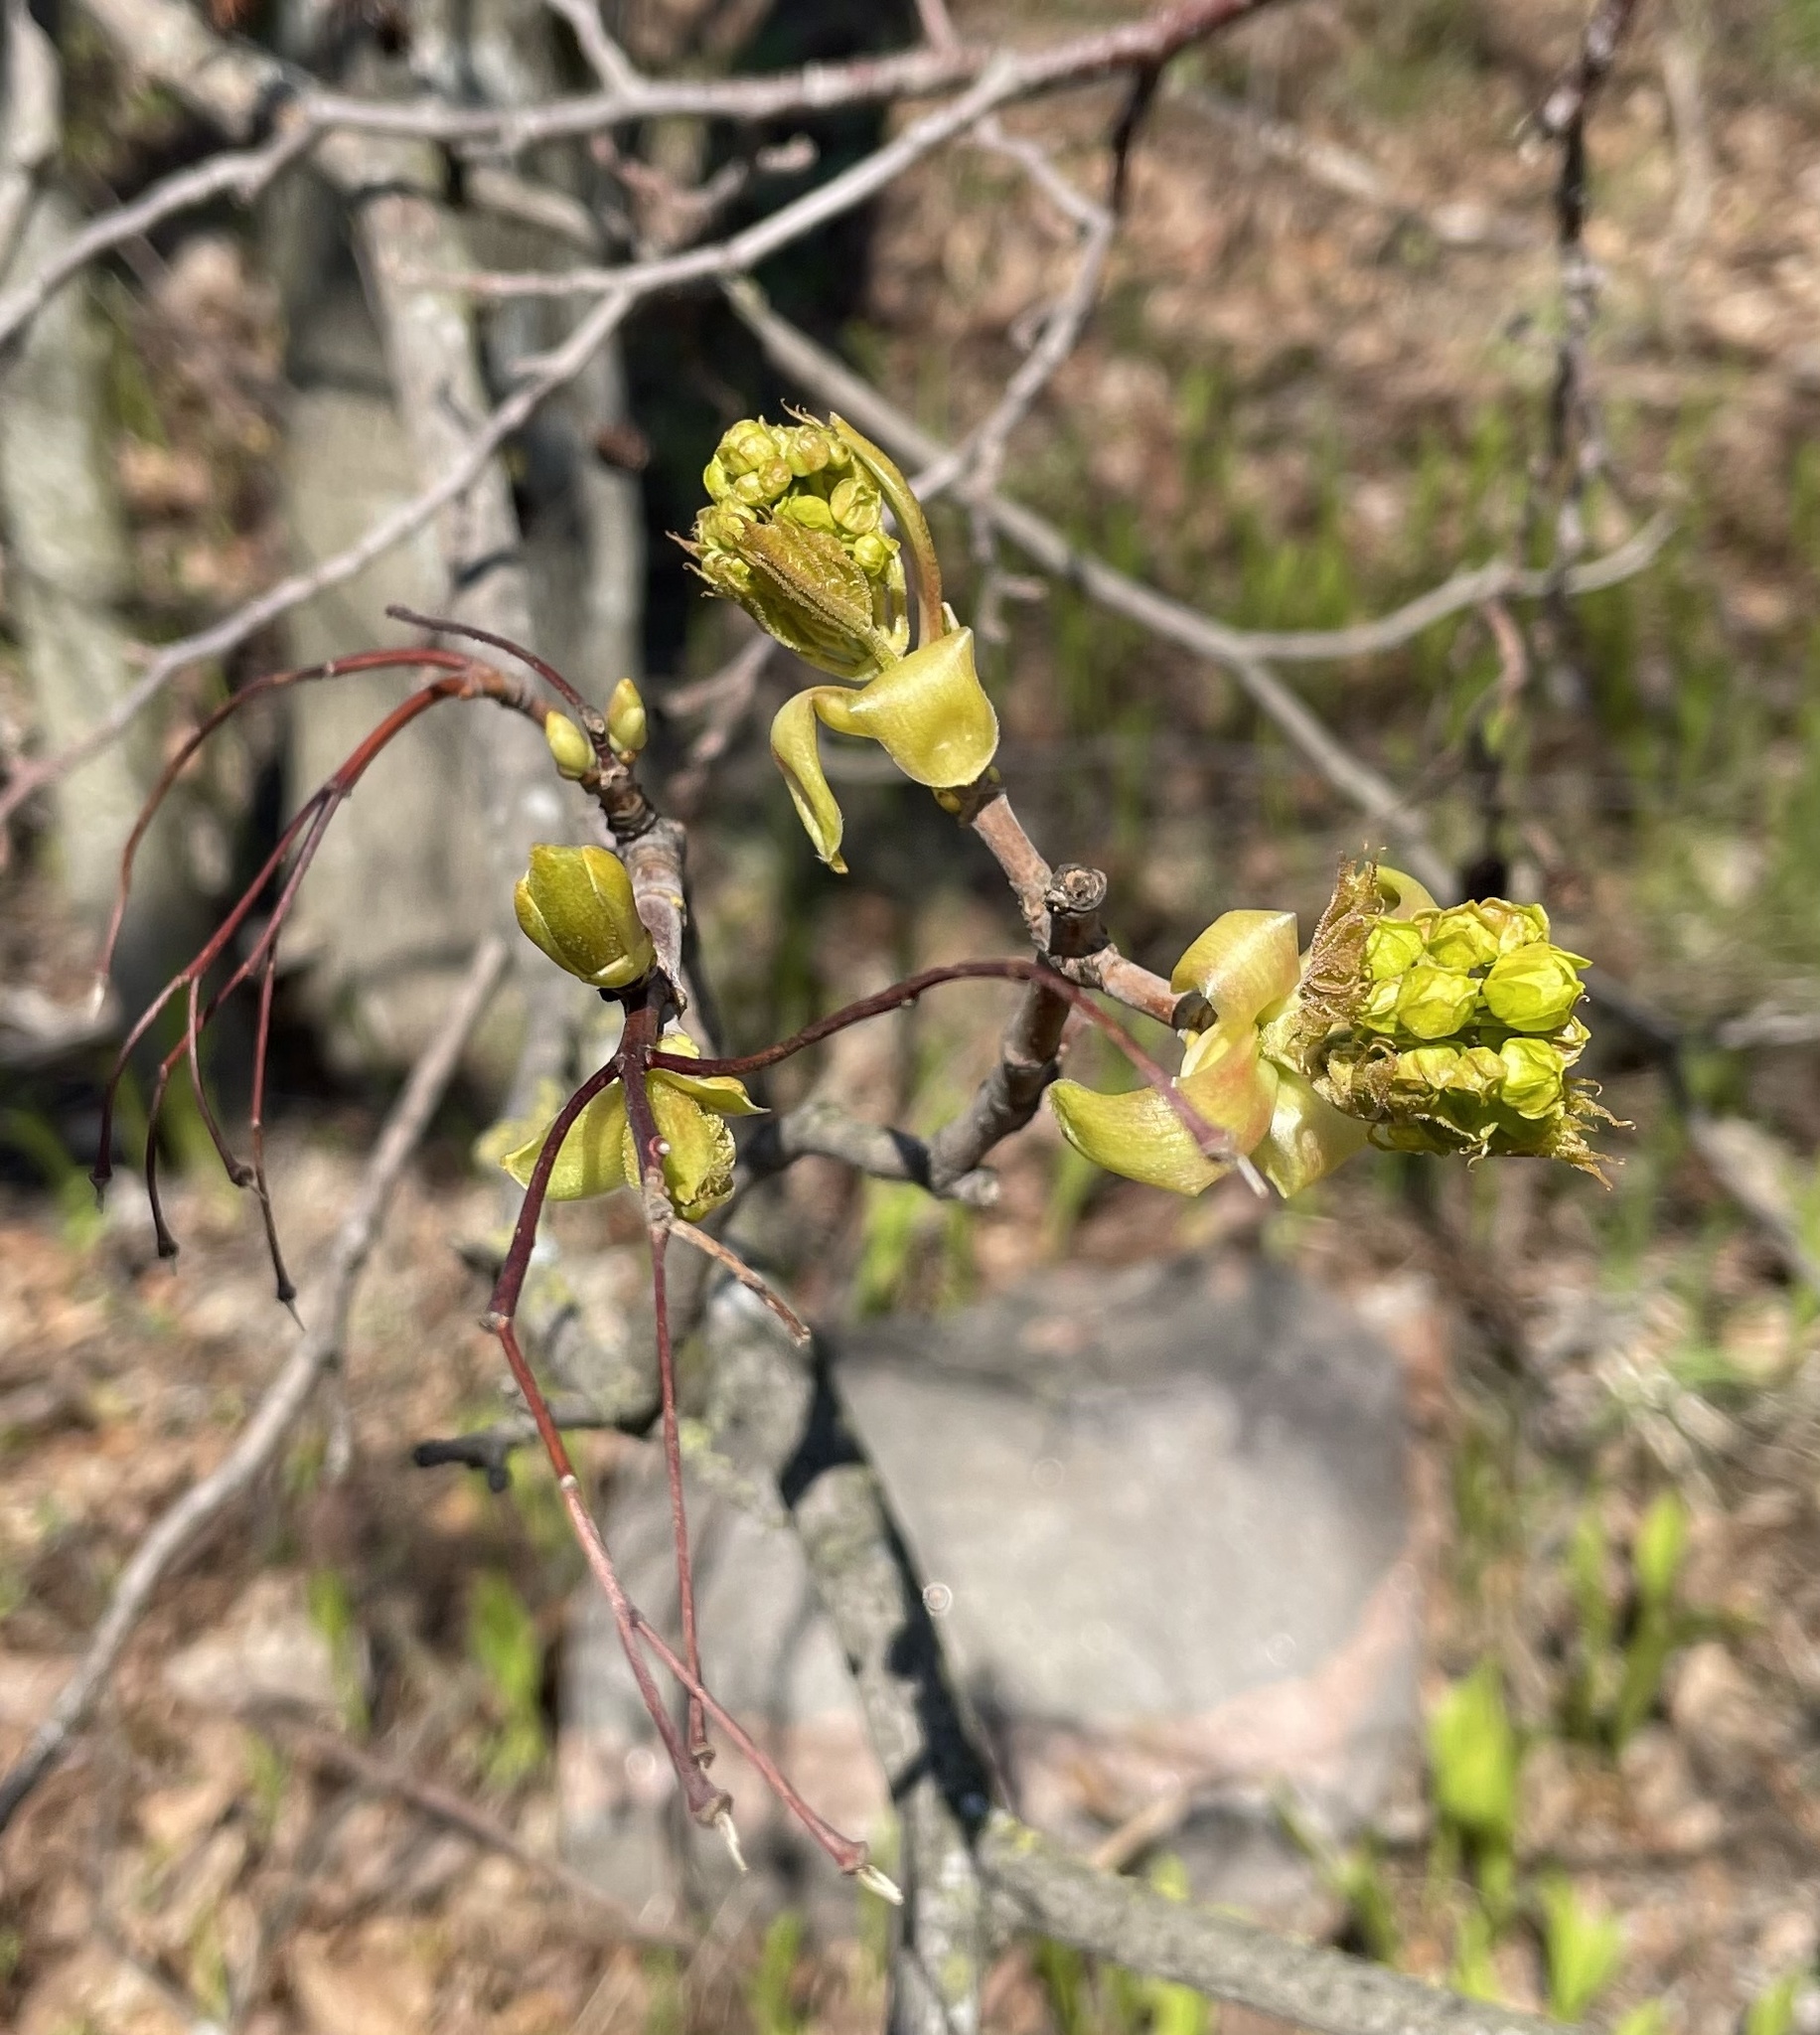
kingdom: Plantae
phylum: Tracheophyta
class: Magnoliopsida
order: Sapindales
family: Sapindaceae
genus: Acer
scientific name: Acer platanoides
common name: Norway maple
